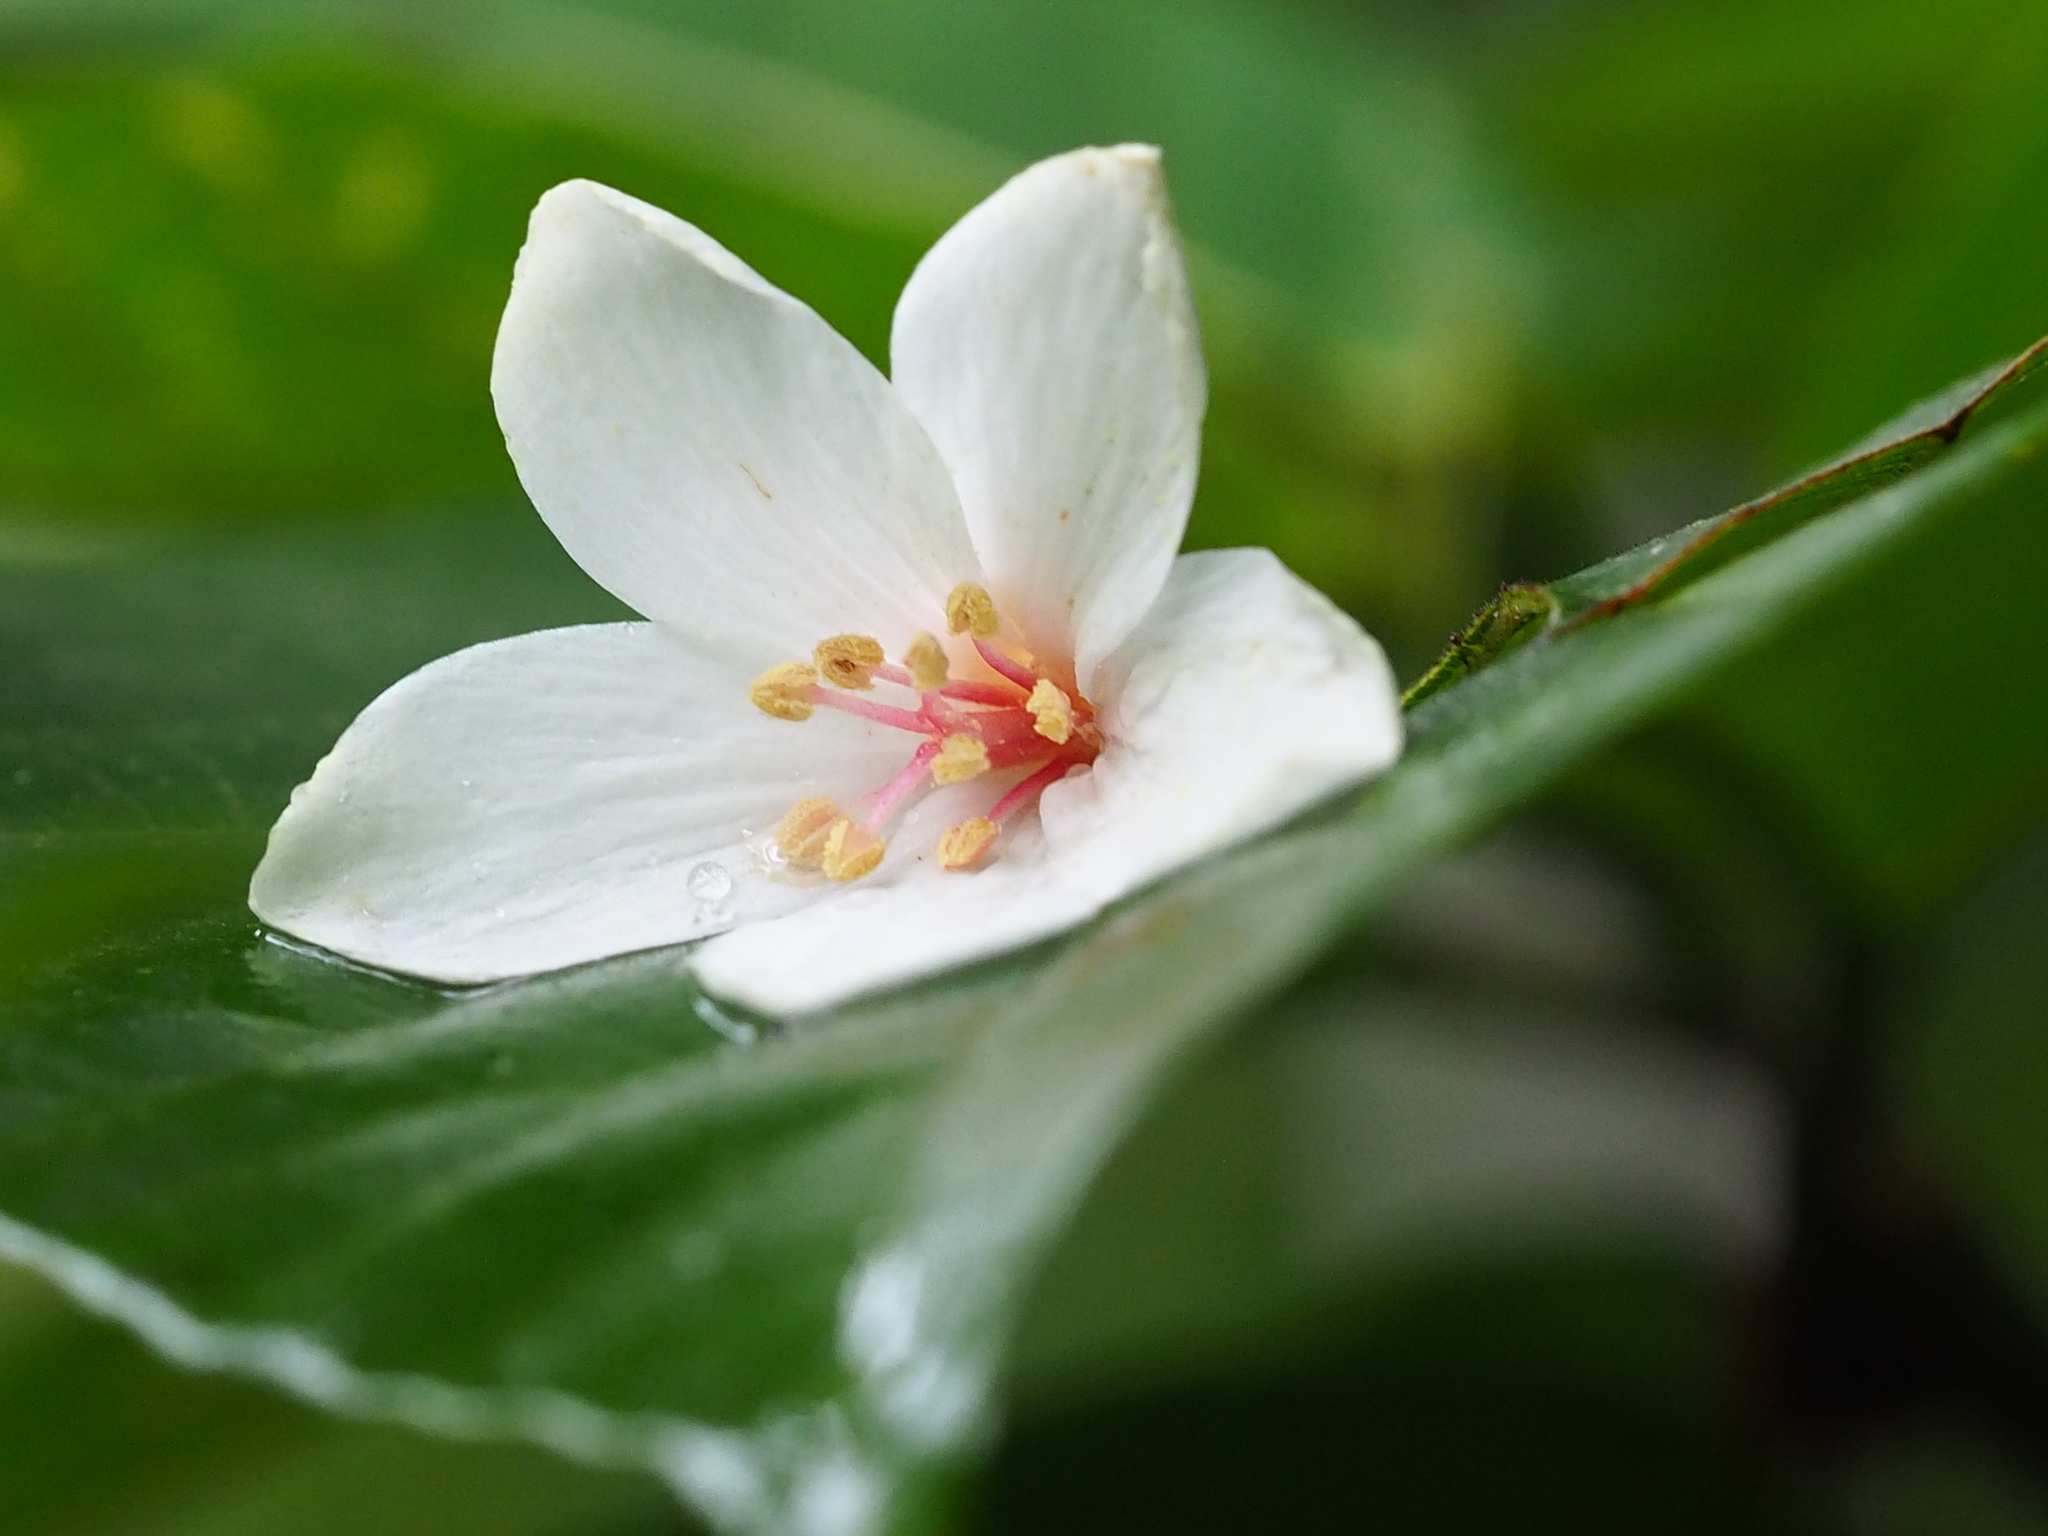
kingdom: Plantae
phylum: Tracheophyta
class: Magnoliopsida
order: Malpighiales
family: Euphorbiaceae
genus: Vernicia
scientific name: Vernicia montana
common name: Mu oil tree
